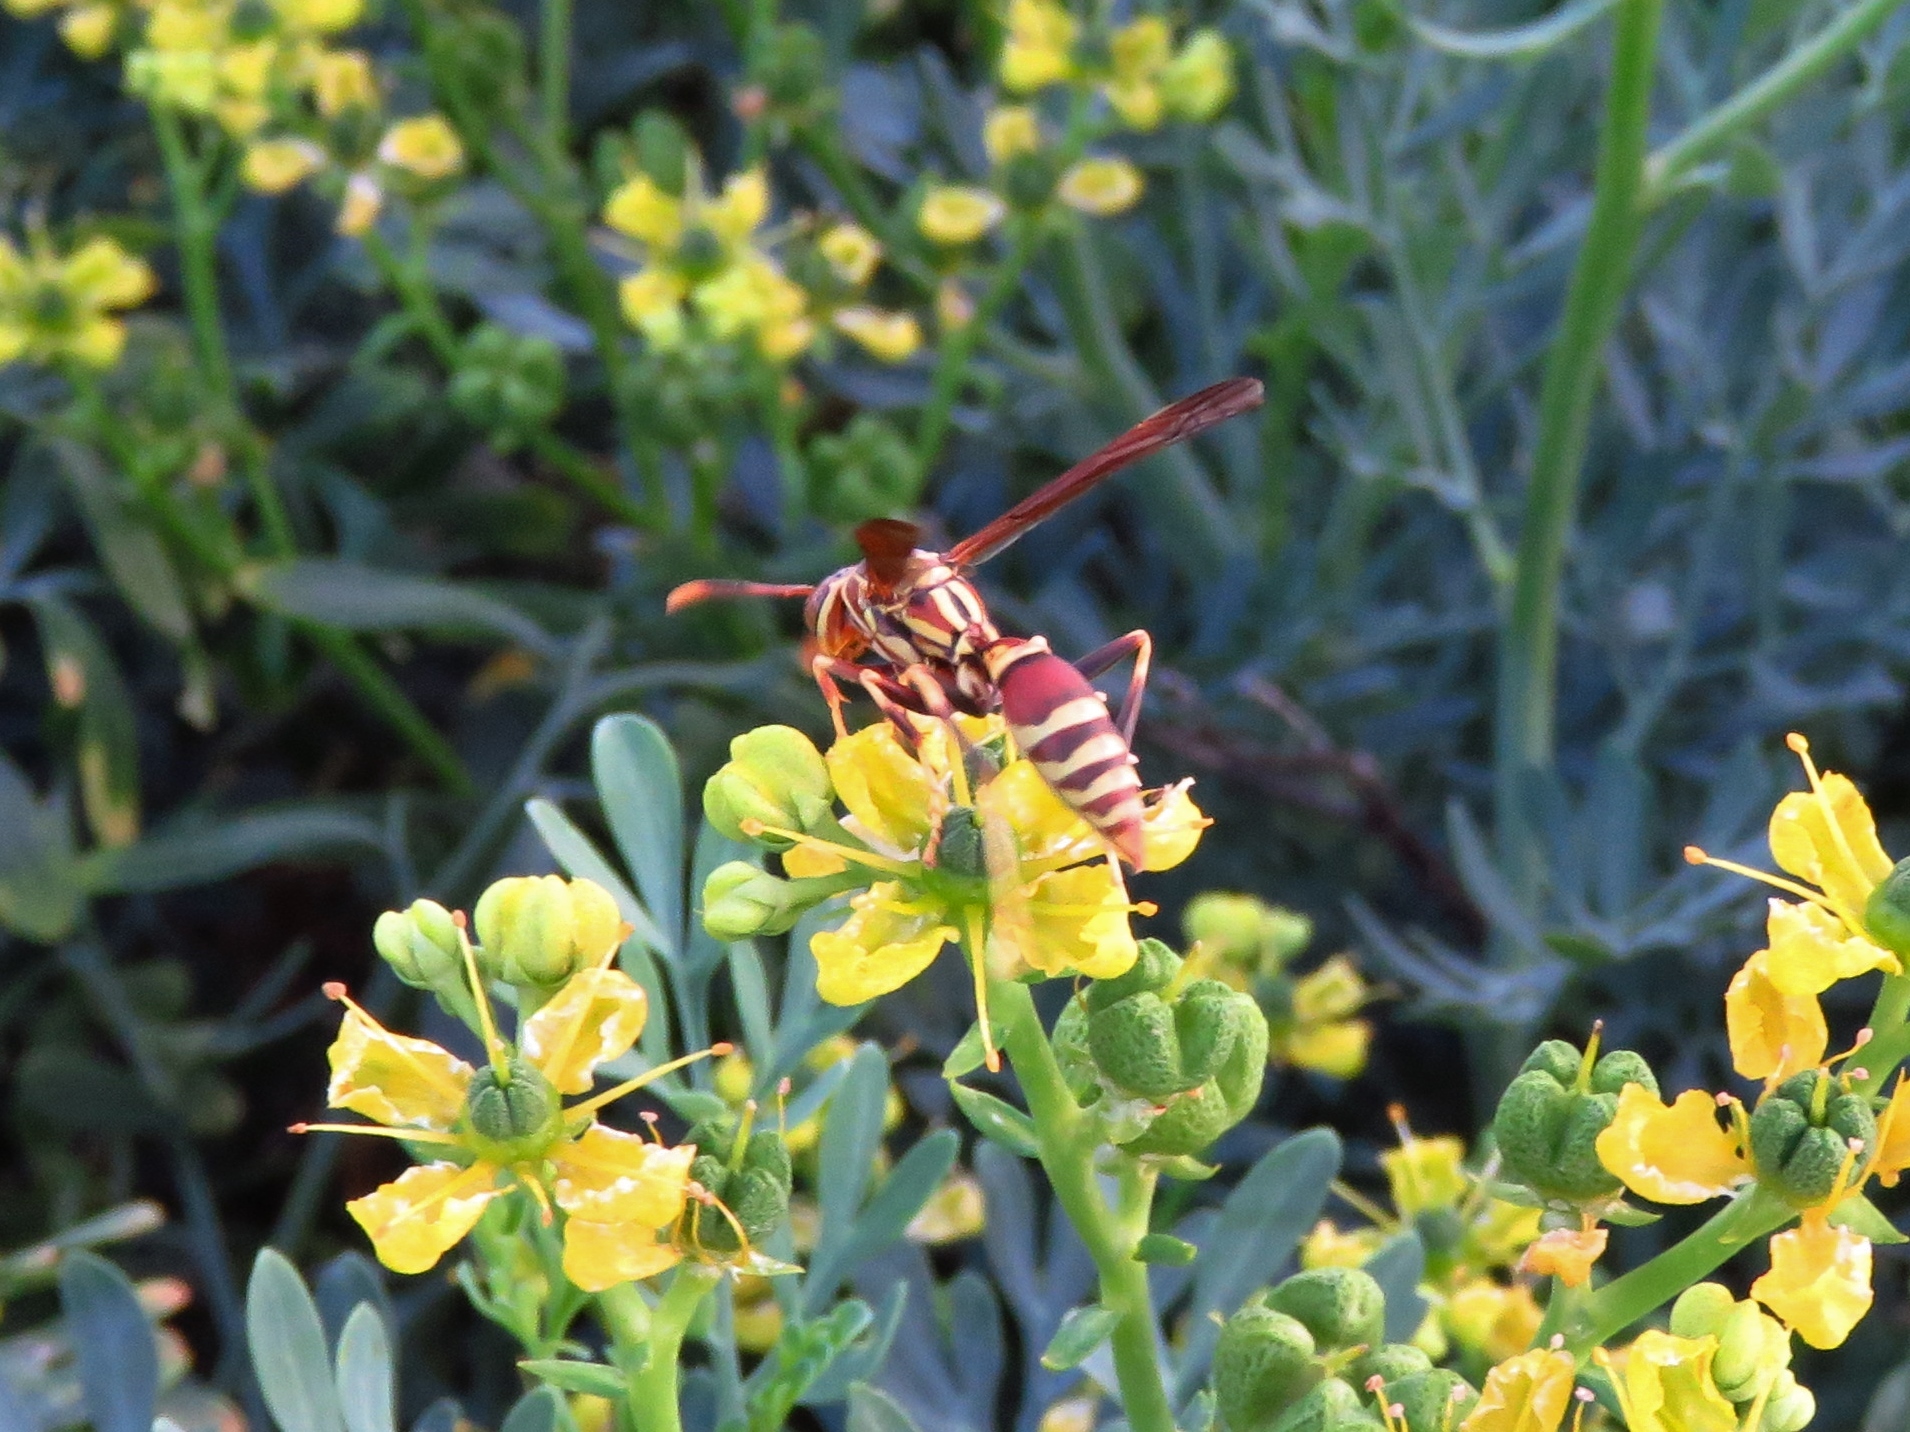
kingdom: Animalia
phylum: Arthropoda
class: Insecta
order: Hymenoptera
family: Eumenidae
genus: Polistes
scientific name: Polistes exclamans
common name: Paper wasp
